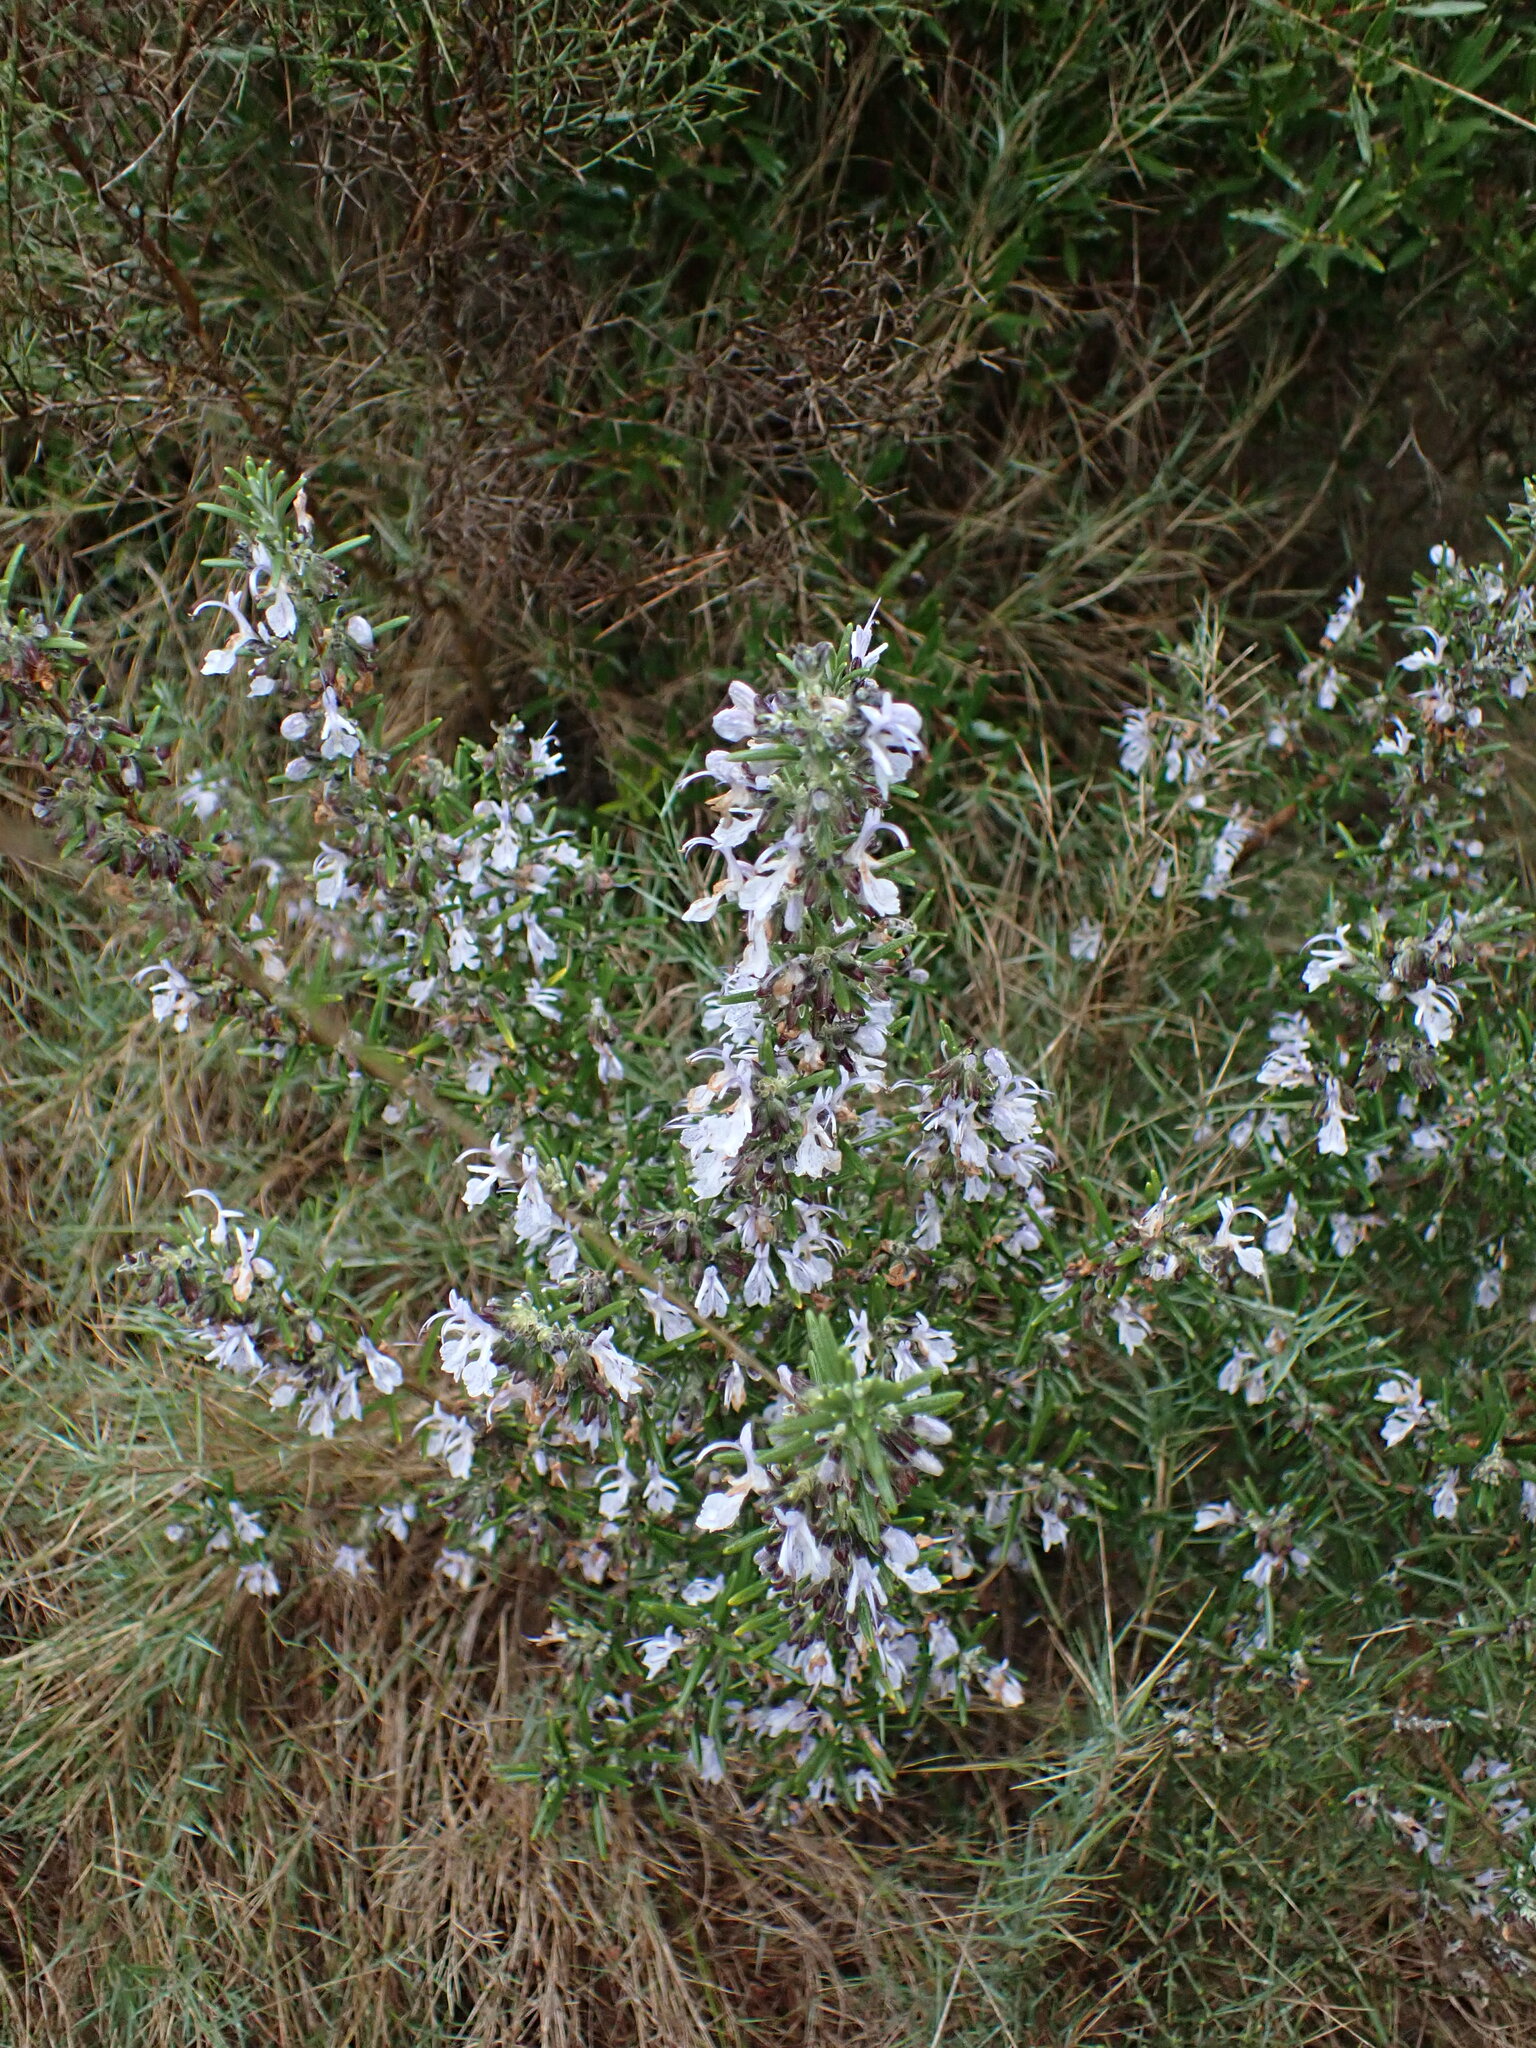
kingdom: Plantae
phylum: Tracheophyta
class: Magnoliopsida
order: Lamiales
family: Lamiaceae
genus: Salvia
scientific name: Salvia rosmarinus
